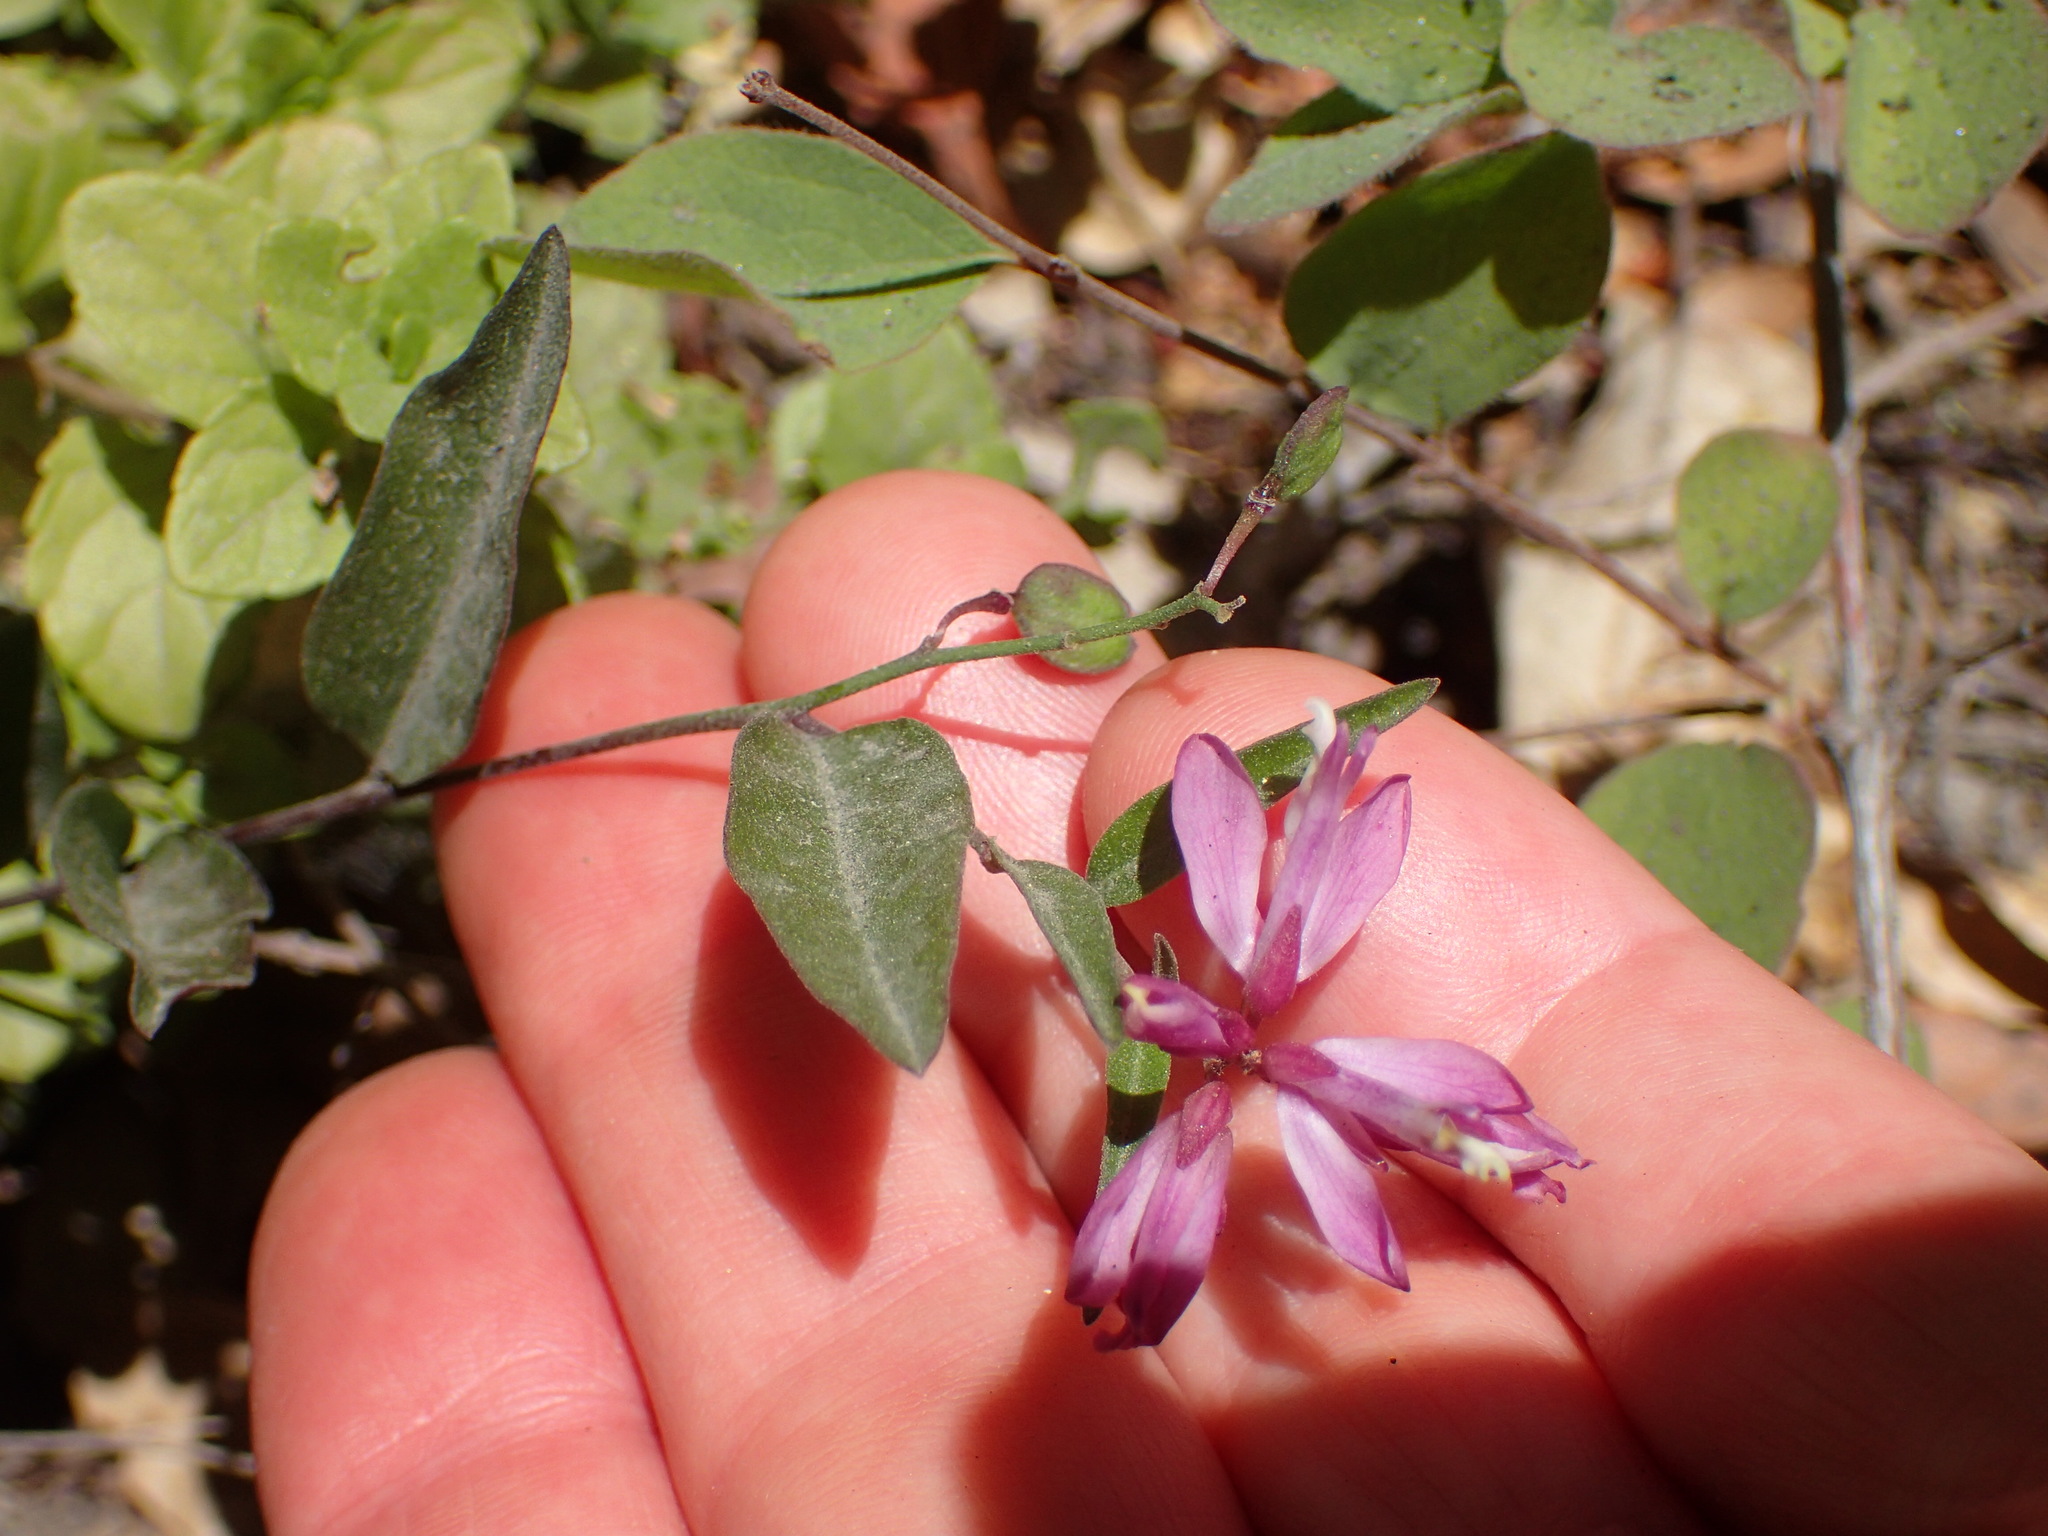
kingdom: Plantae
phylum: Tracheophyta
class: Magnoliopsida
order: Fabales
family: Polygalaceae
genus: Rhinotropis
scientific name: Rhinotropis californica
